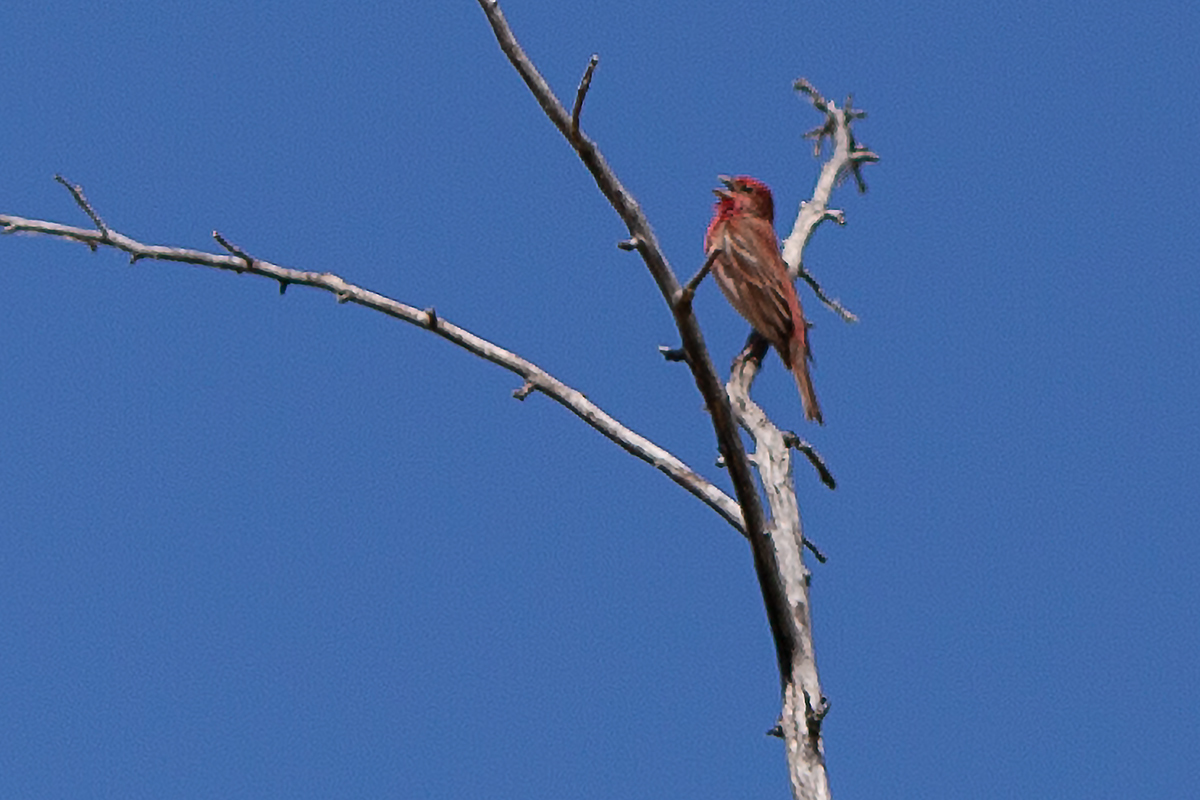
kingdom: Animalia
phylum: Chordata
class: Aves
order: Passeriformes
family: Fringillidae
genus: Carpodacus
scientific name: Carpodacus erythrinus
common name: Common rosefinch
